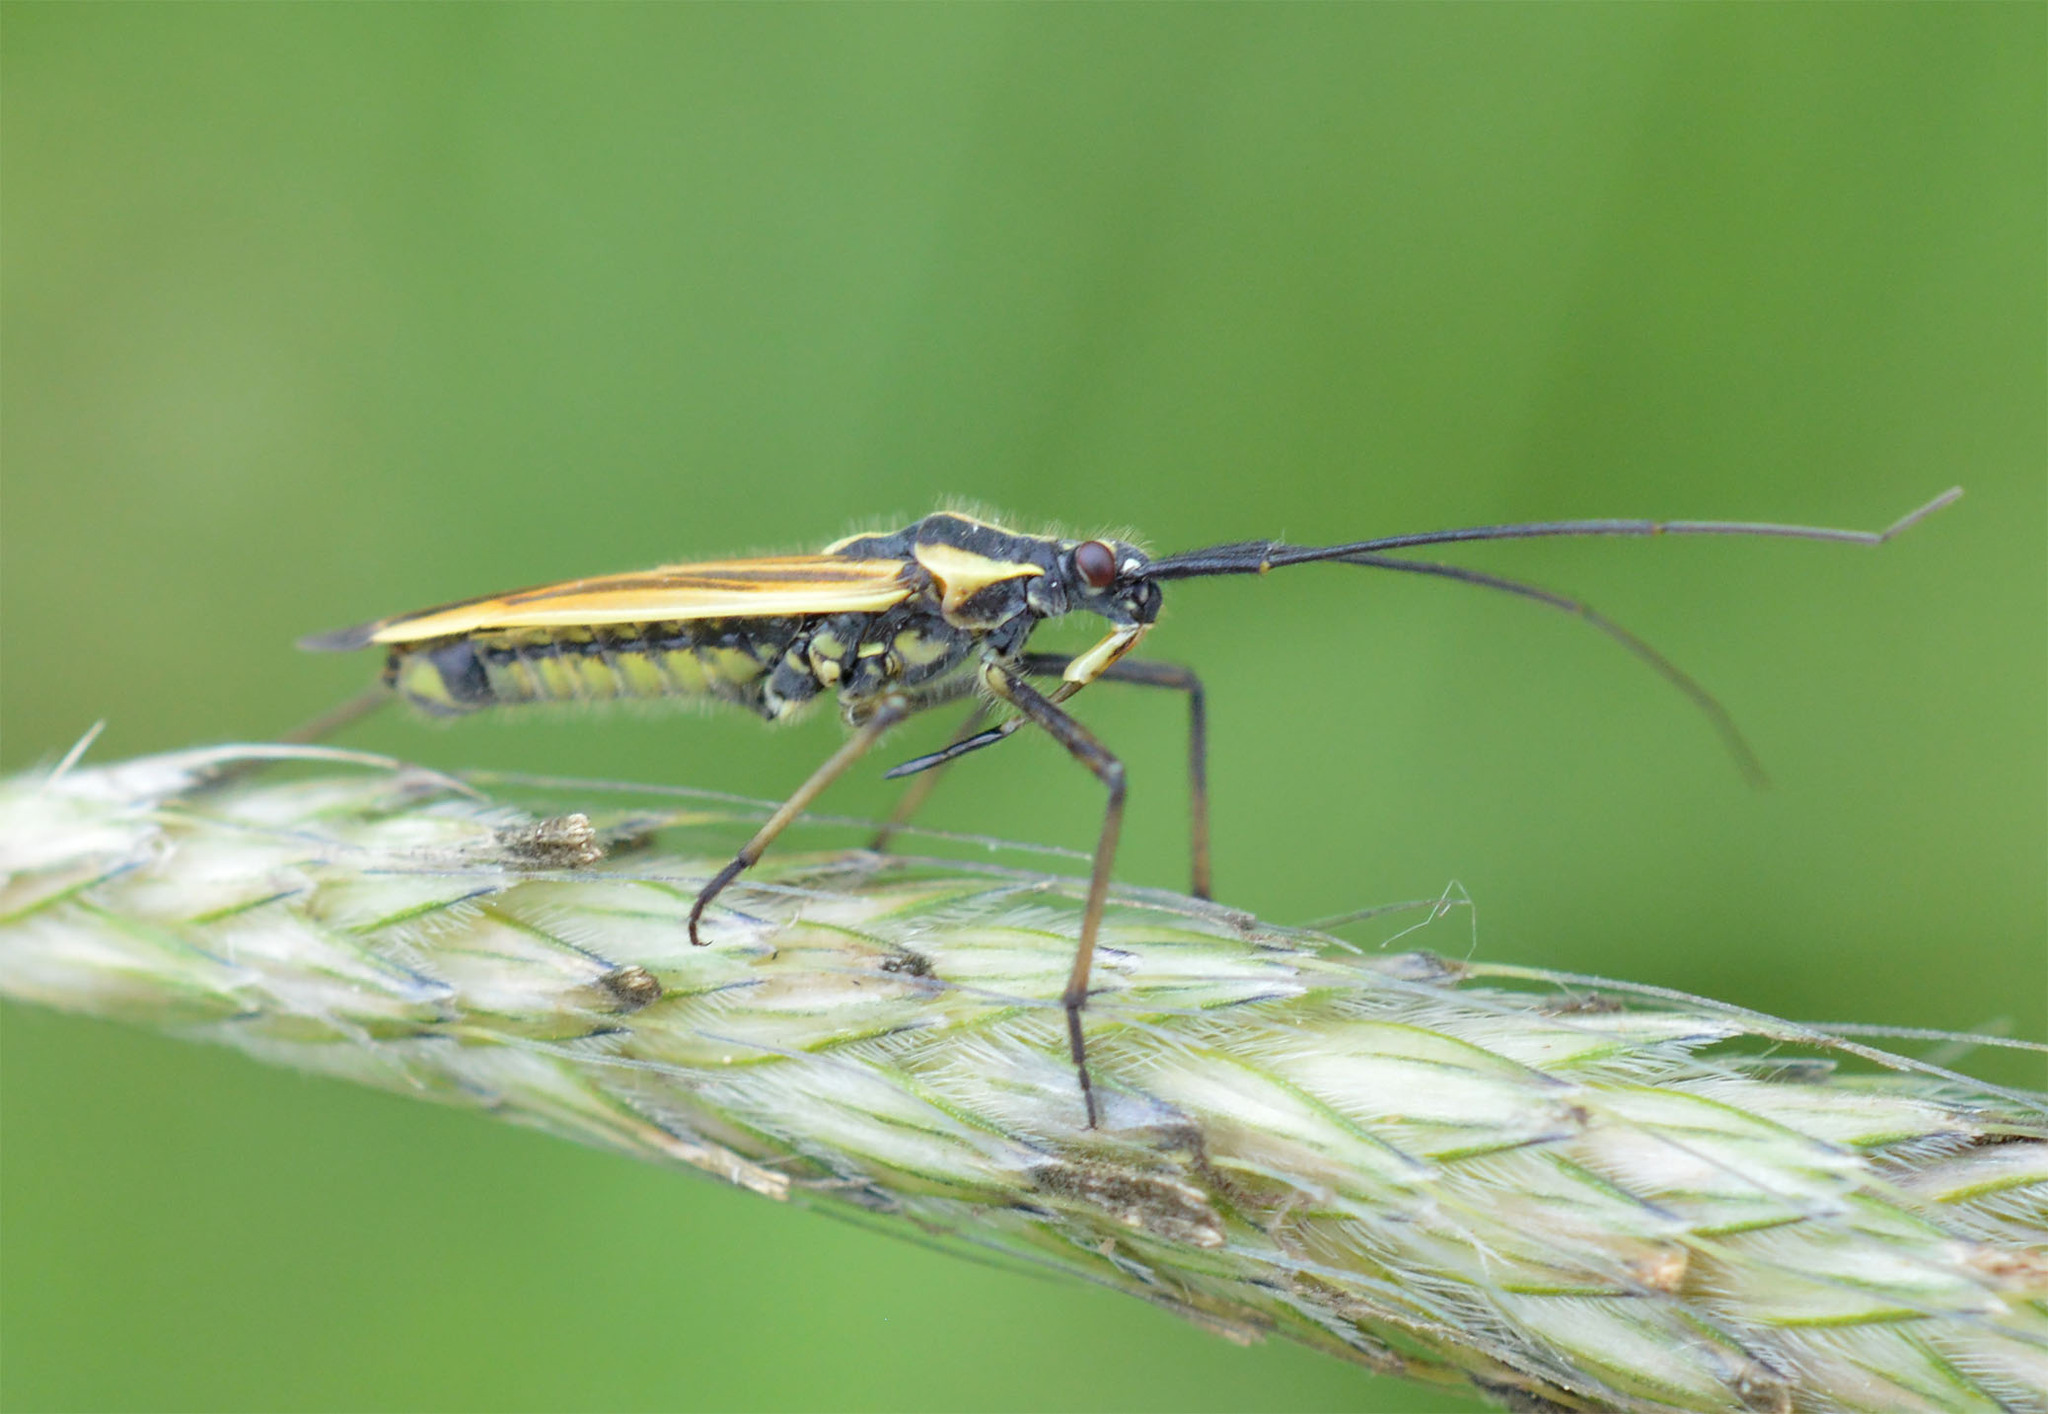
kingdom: Animalia
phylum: Arthropoda
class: Insecta
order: Hemiptera
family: Miridae
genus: Leptopterna
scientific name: Leptopterna dolabrata
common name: Meadow plant bug
